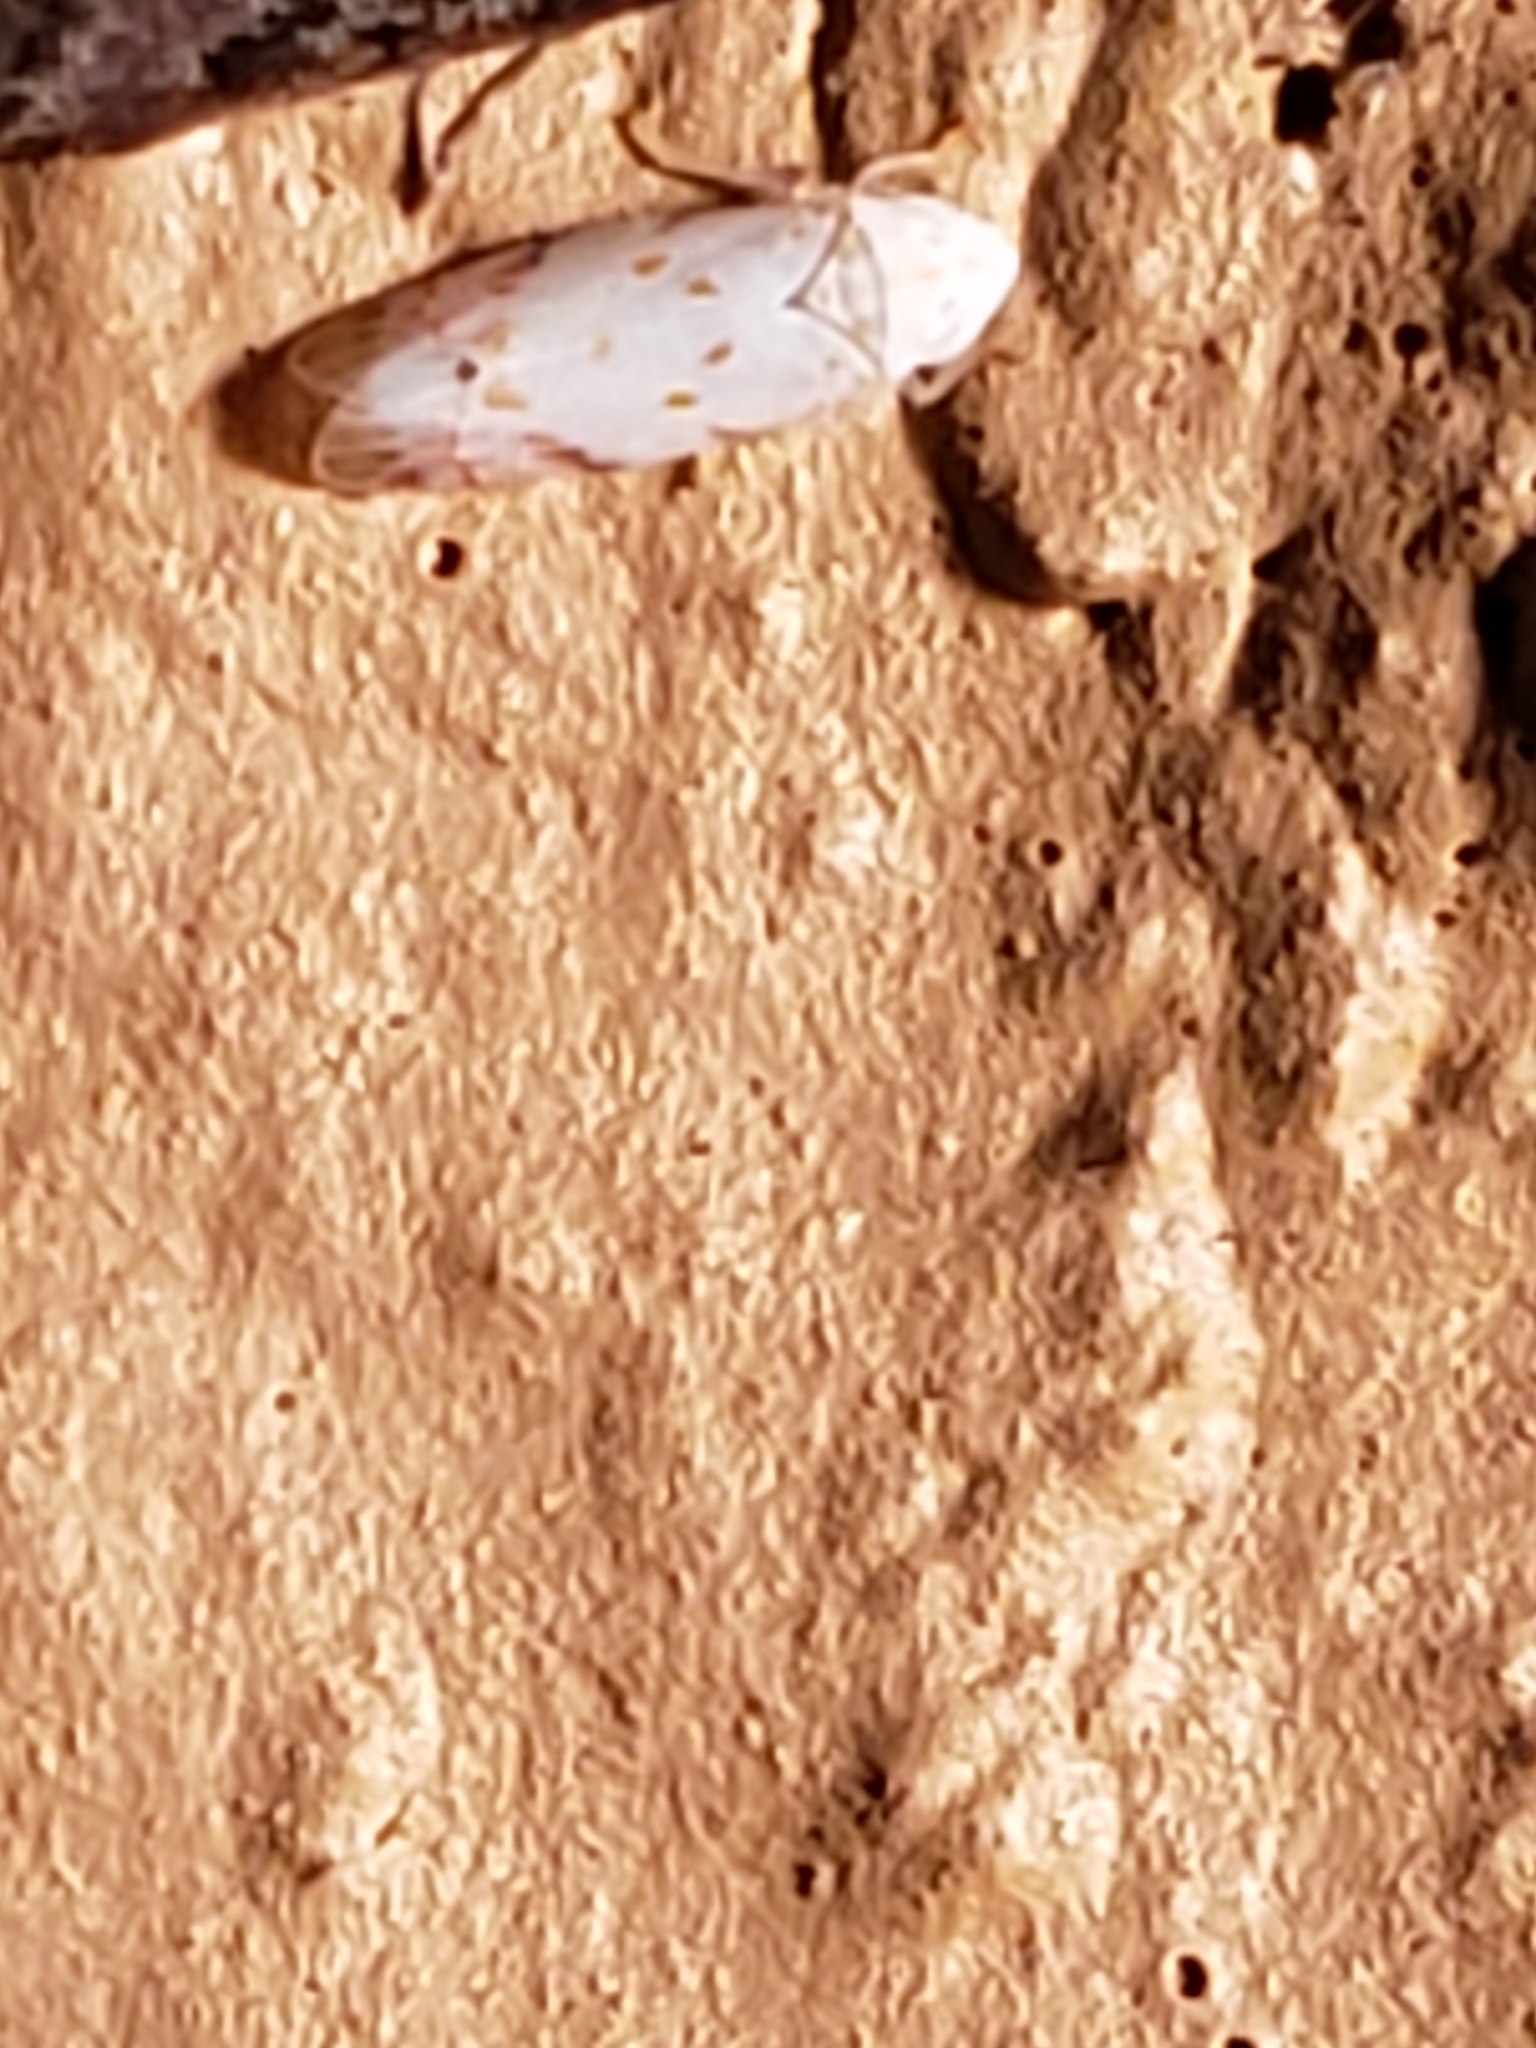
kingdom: Animalia
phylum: Arthropoda
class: Insecta
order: Hemiptera
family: Cicadellidae
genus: Eratoneura
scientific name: Eratoneura stephensoni
